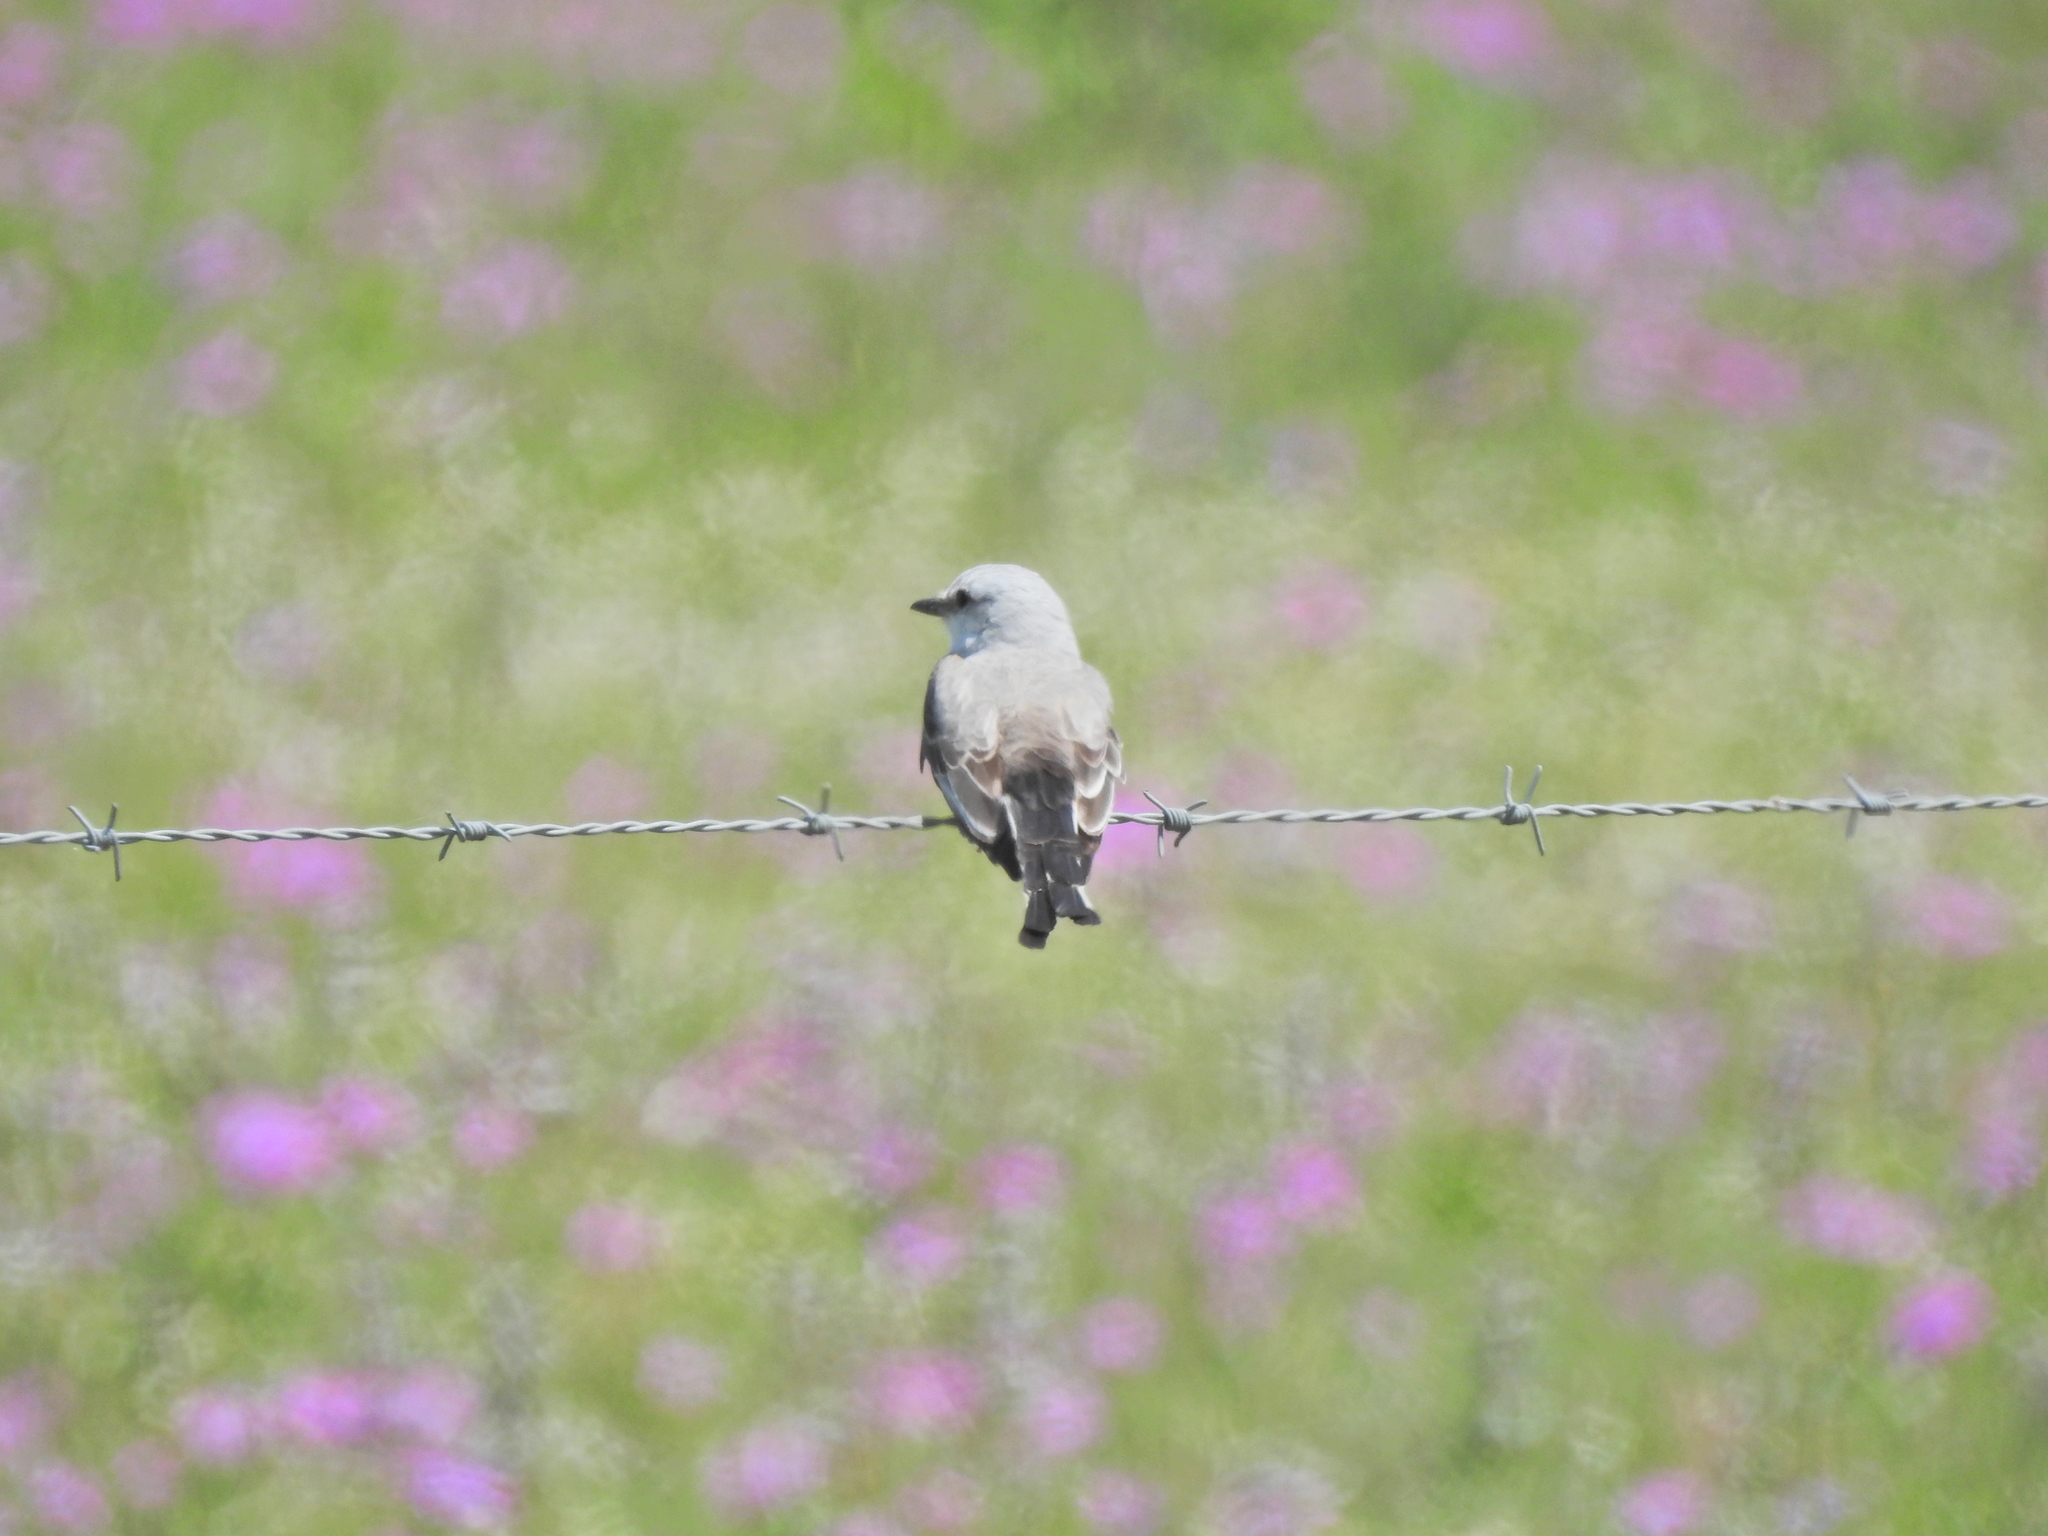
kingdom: Animalia
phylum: Chordata
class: Aves
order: Passeriformes
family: Tyrannidae
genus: Tyrannus
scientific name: Tyrannus forficatus
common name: Scissor-tailed flycatcher
